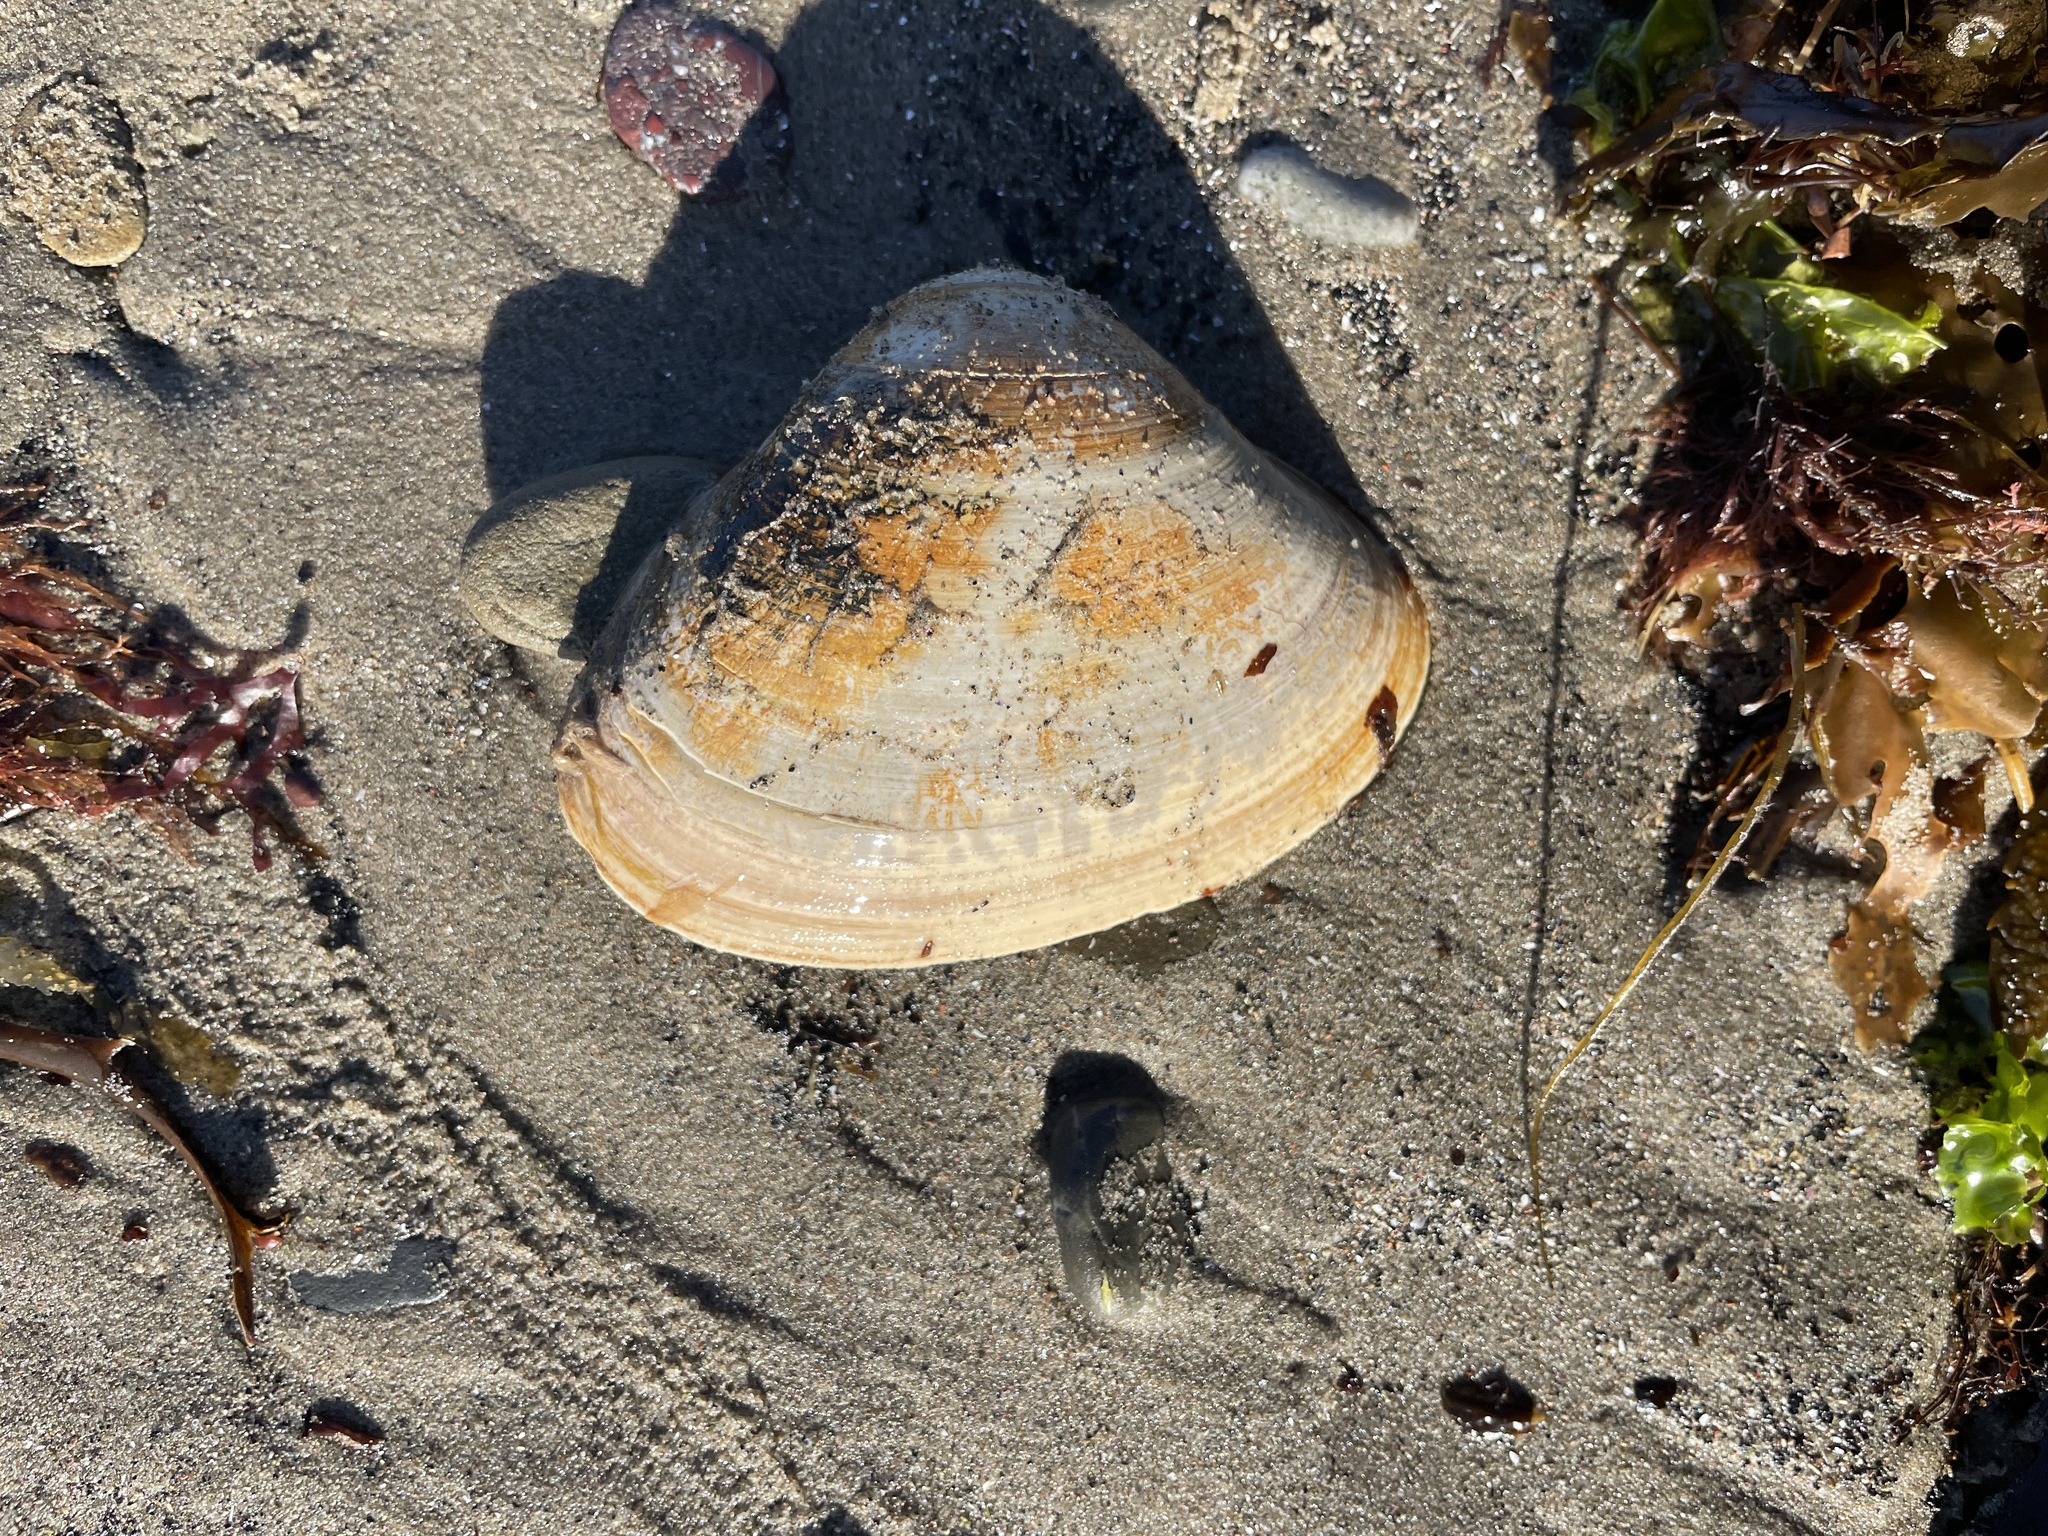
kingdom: Animalia
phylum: Mollusca
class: Bivalvia
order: Venerida
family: Mactridae
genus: Spisula
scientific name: Spisula solidissima
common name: Atlantic surf clam
